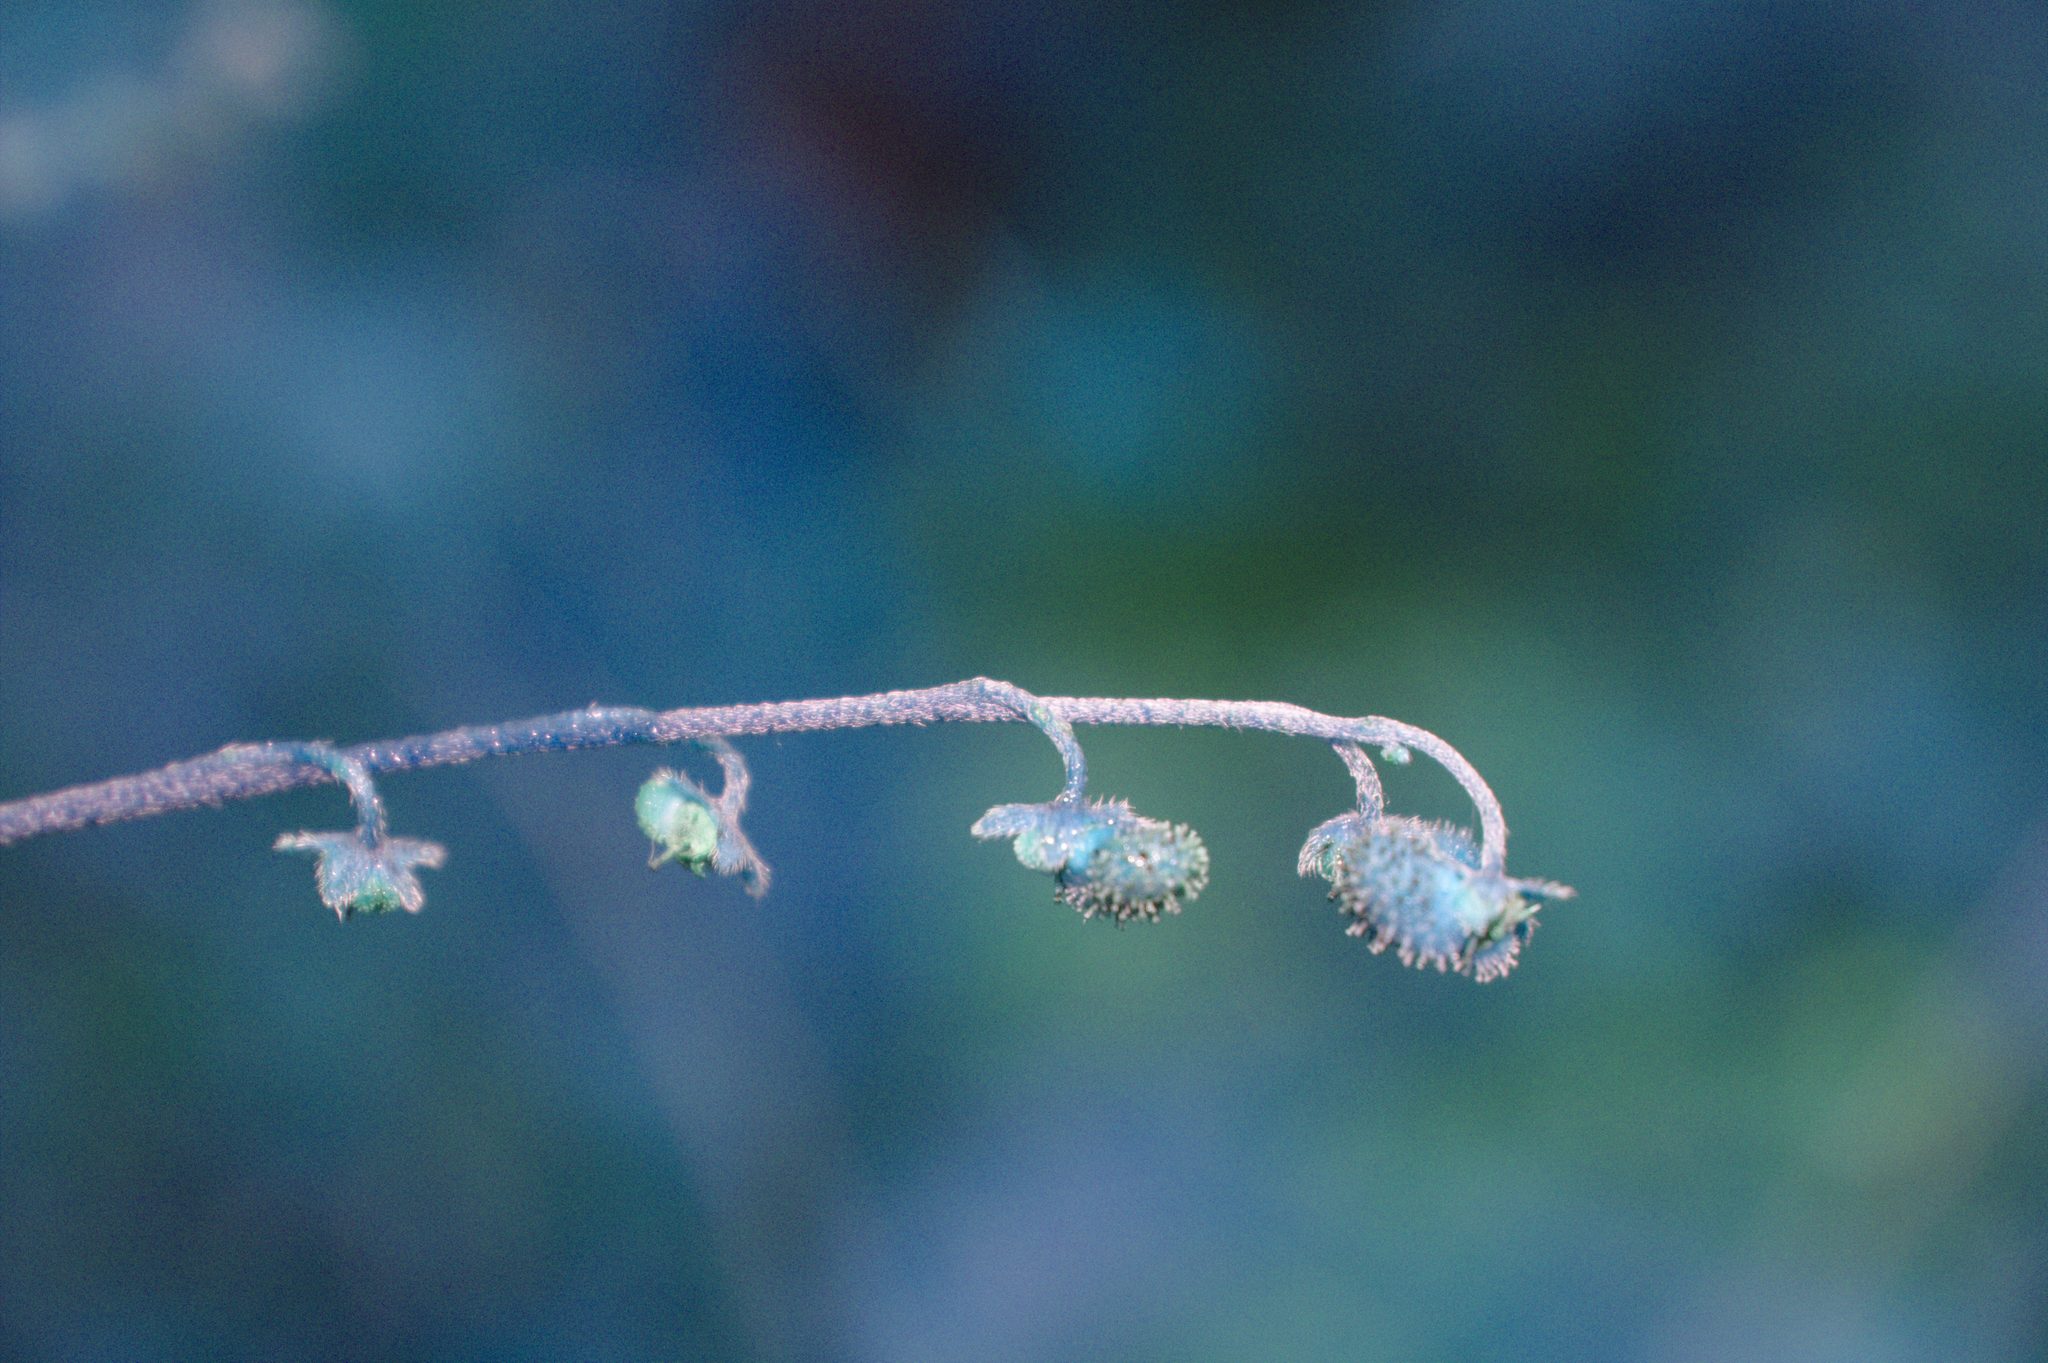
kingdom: Plantae
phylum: Tracheophyta
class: Magnoliopsida
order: Boraginales
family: Boraginaceae
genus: Andersonglossum
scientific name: Andersonglossum boreale
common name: Northern hound's-tongue
